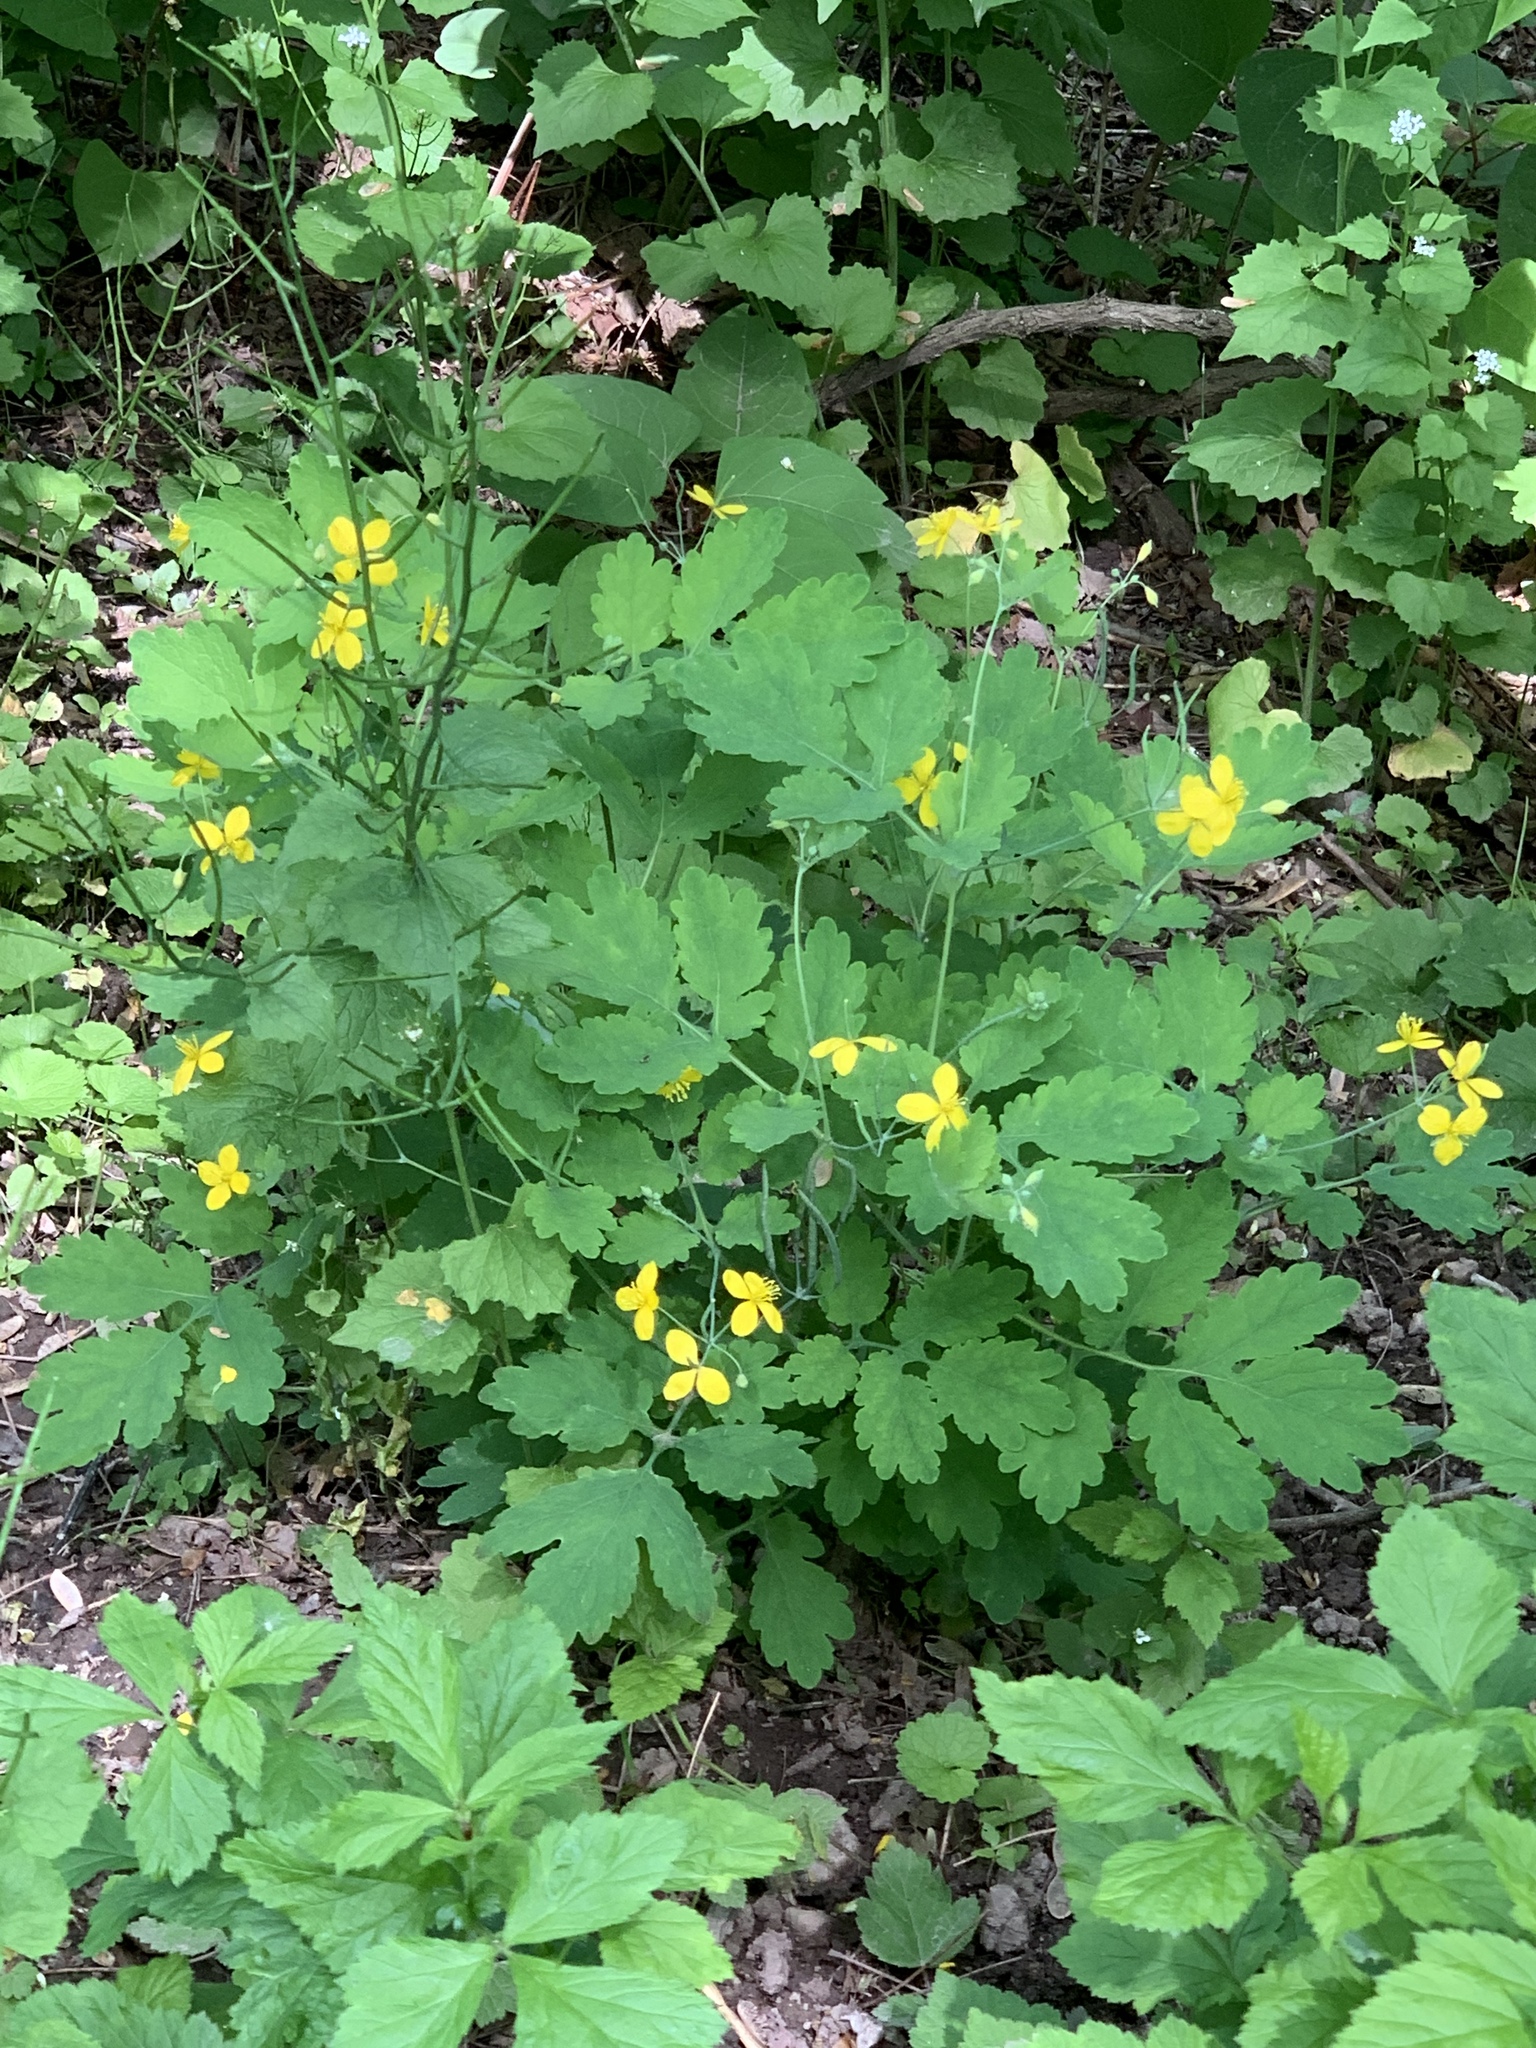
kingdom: Plantae
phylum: Tracheophyta
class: Magnoliopsida
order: Ranunculales
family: Papaveraceae
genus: Chelidonium
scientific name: Chelidonium majus
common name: Greater celandine
